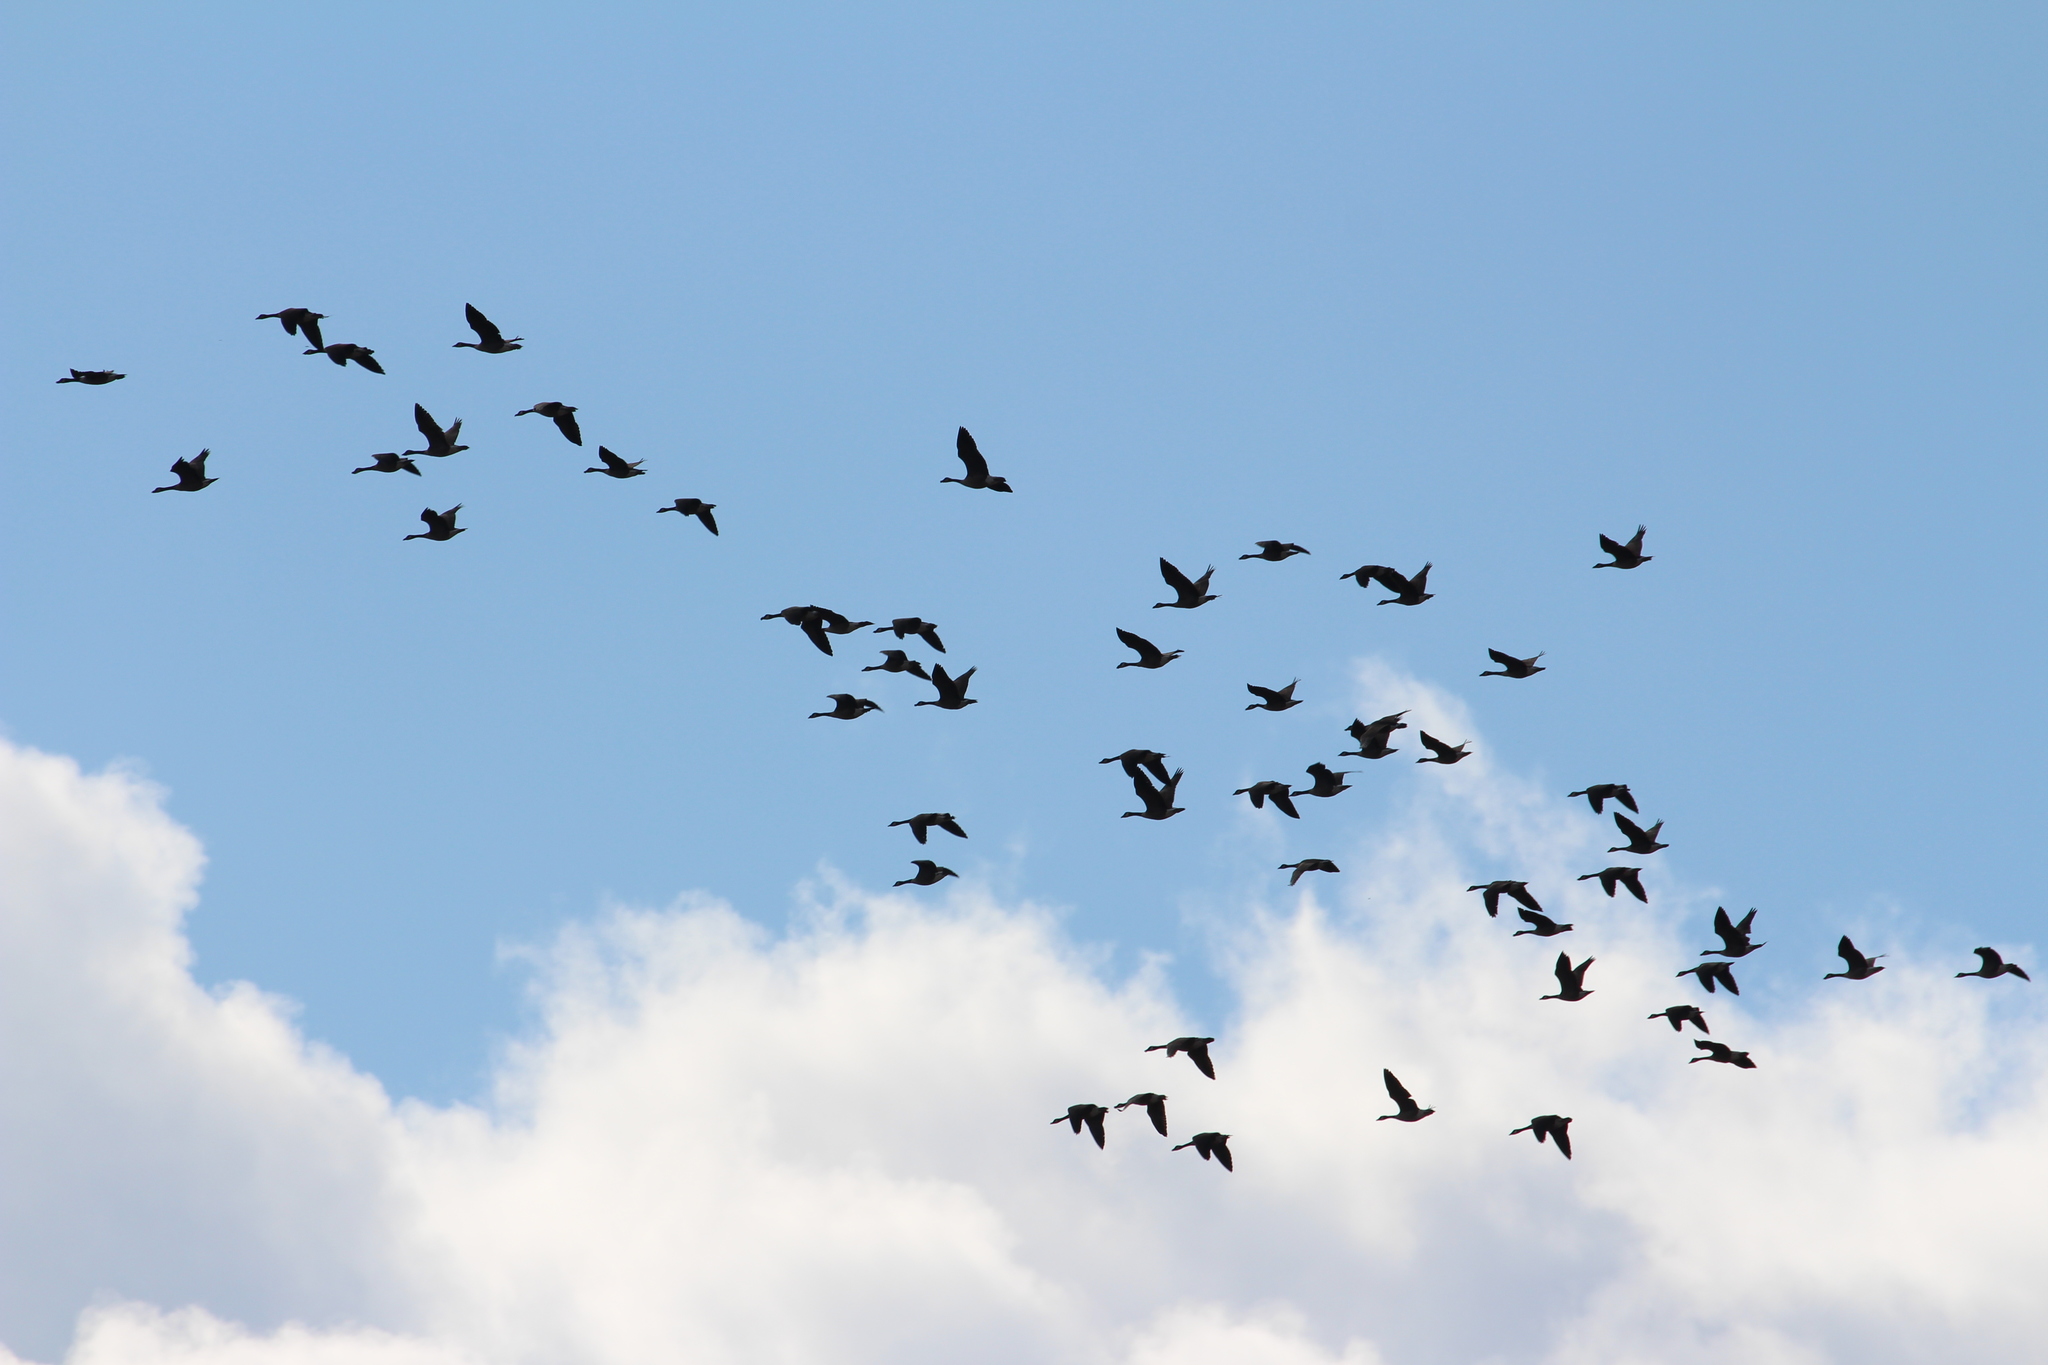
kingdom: Animalia
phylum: Chordata
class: Aves
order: Anseriformes
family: Anatidae
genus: Branta
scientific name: Branta canadensis
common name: Canada goose
